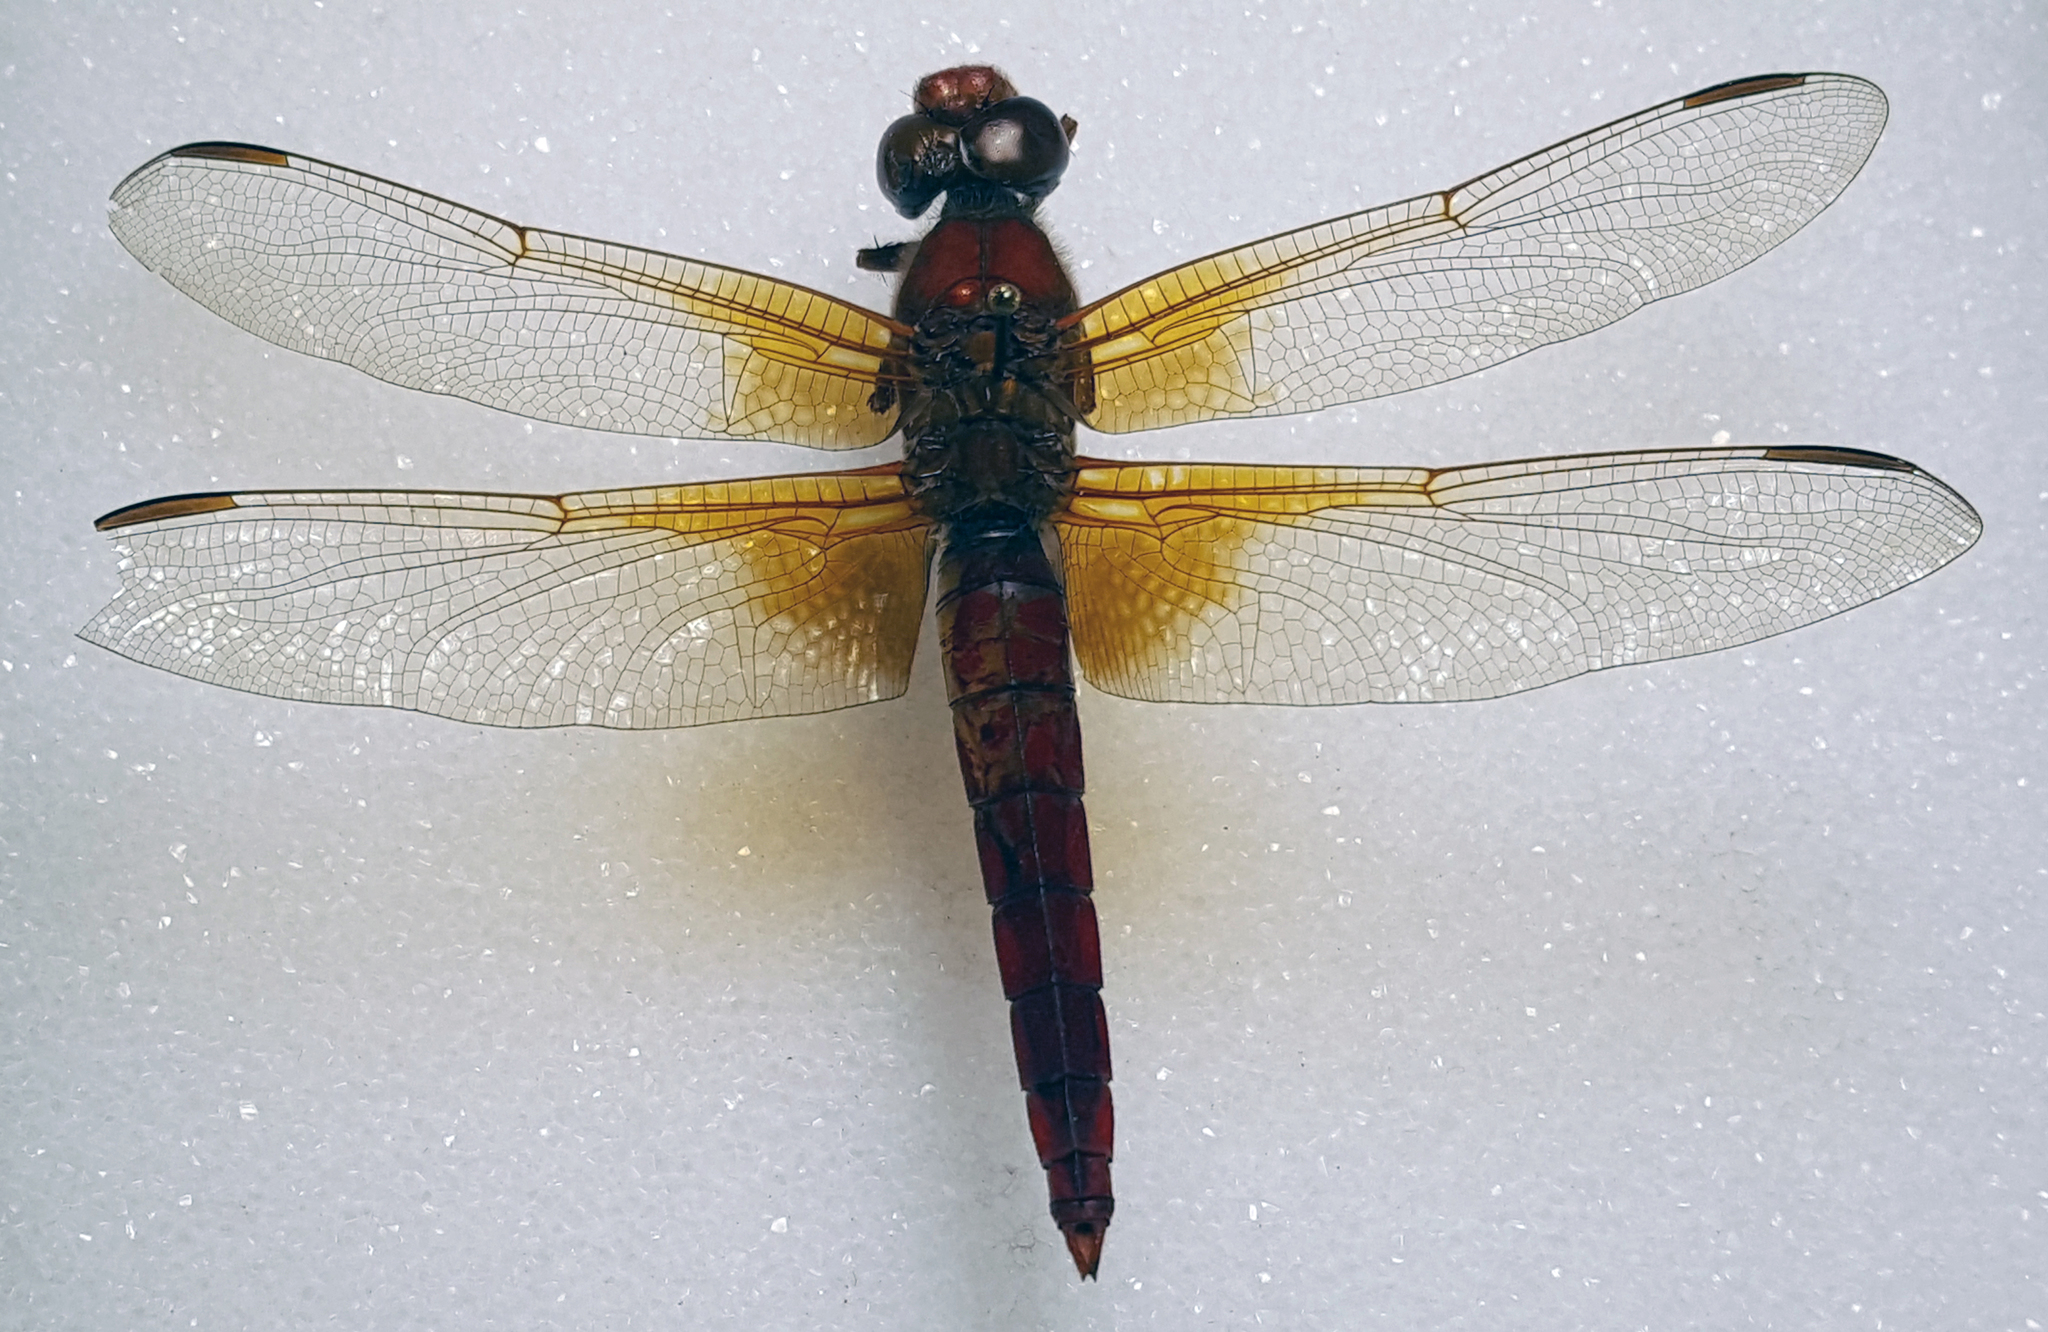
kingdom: Animalia
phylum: Arthropoda
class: Insecta
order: Odonata
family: Libellulidae
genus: Libellula
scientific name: Libellula croceipennis
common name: Neon skimmer
